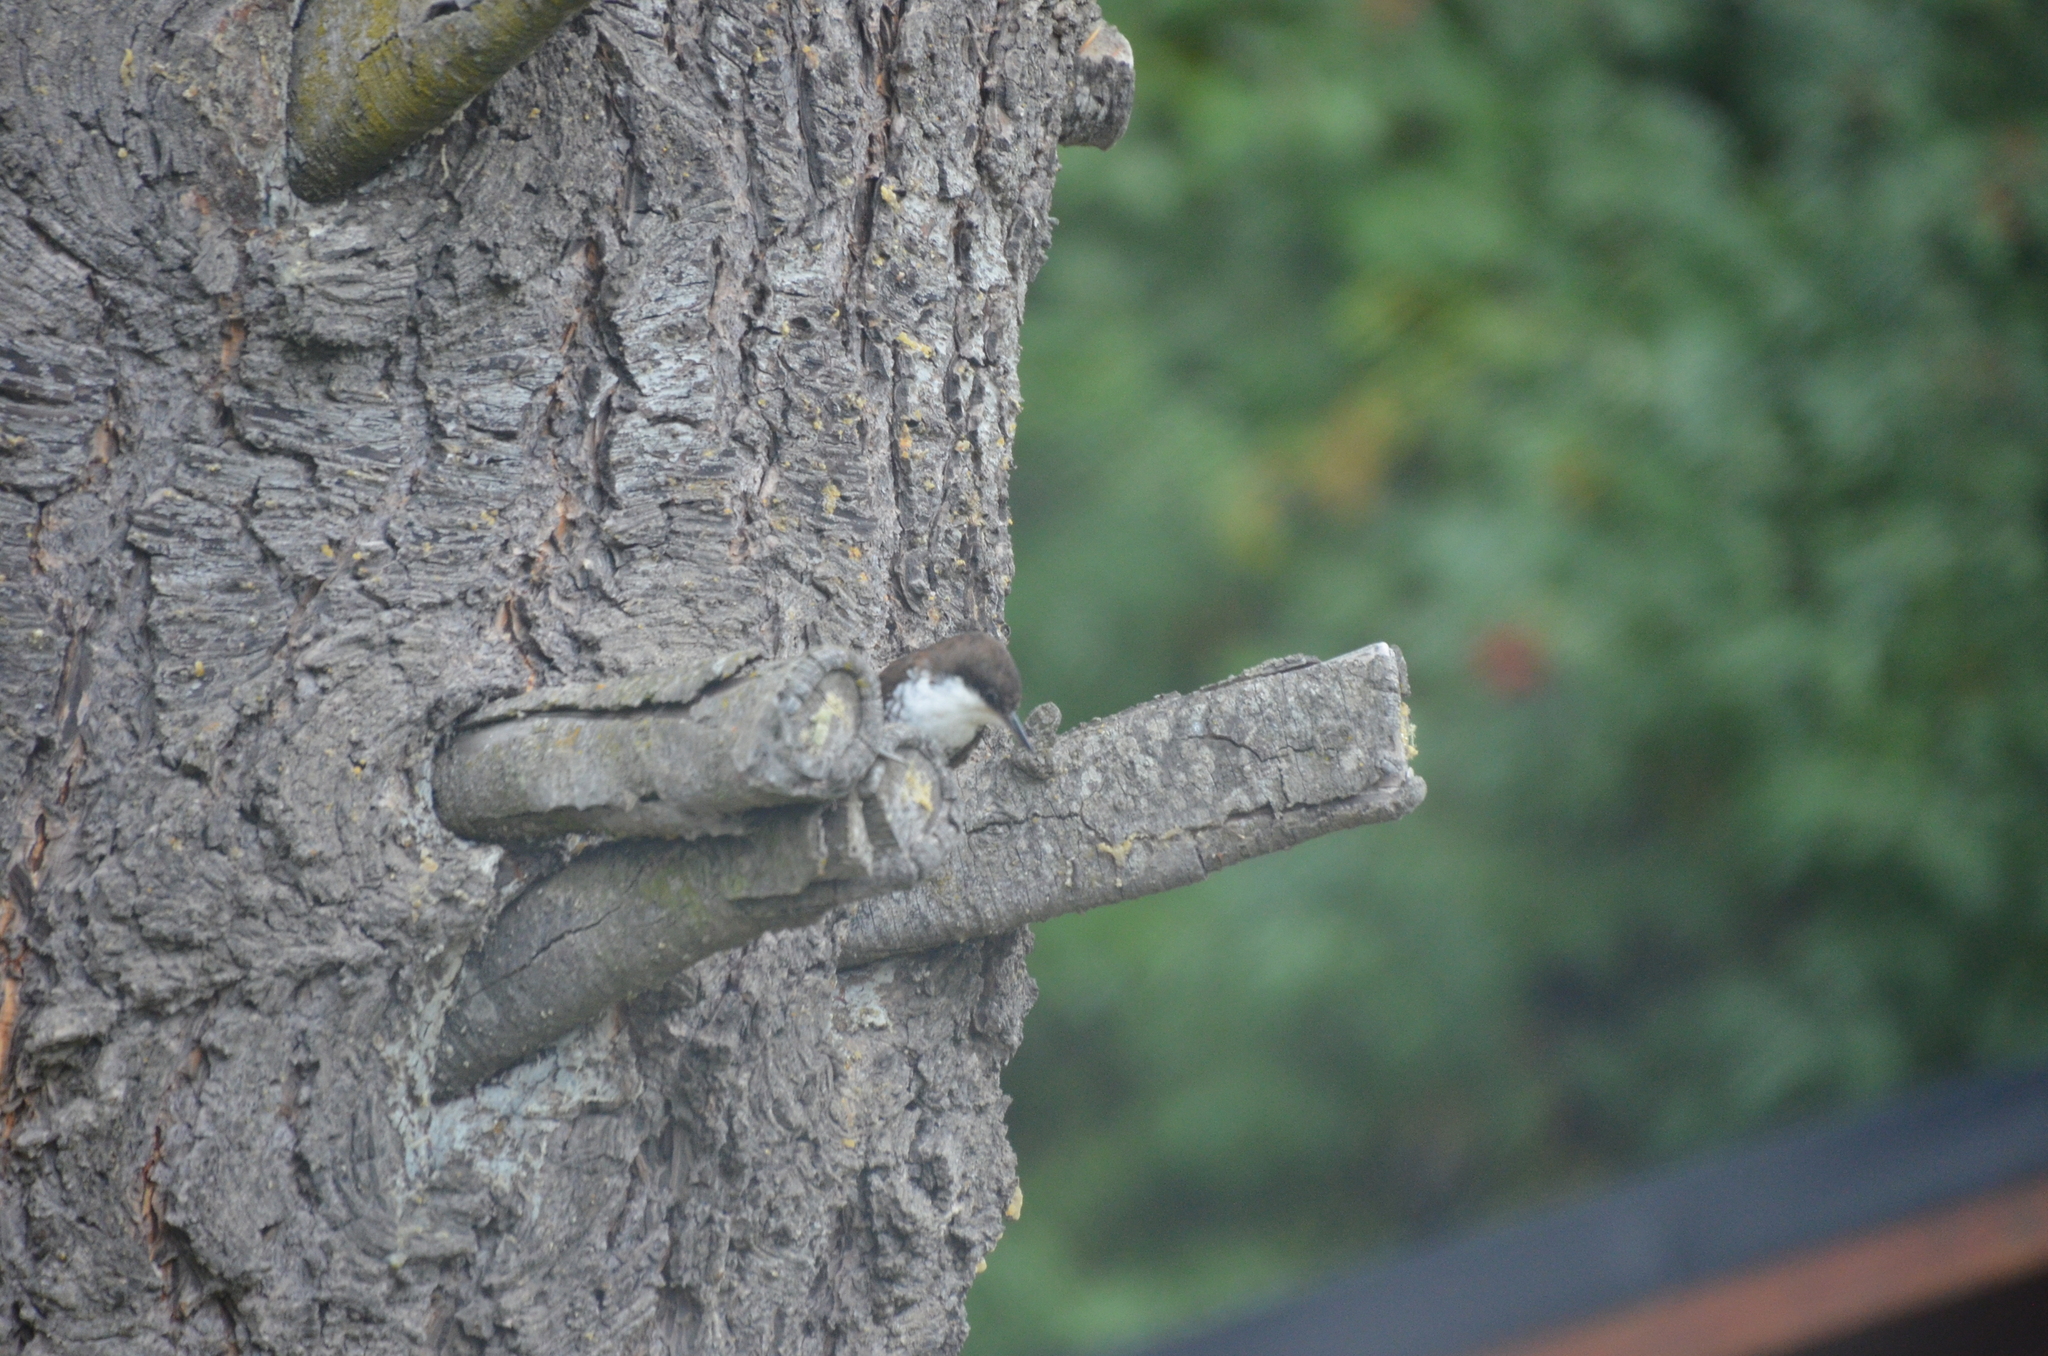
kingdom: Animalia
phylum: Chordata
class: Aves
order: Passeriformes
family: Furnariidae
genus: Pygarrhichas
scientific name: Pygarrhichas albogularis
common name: White-throated treerunner
